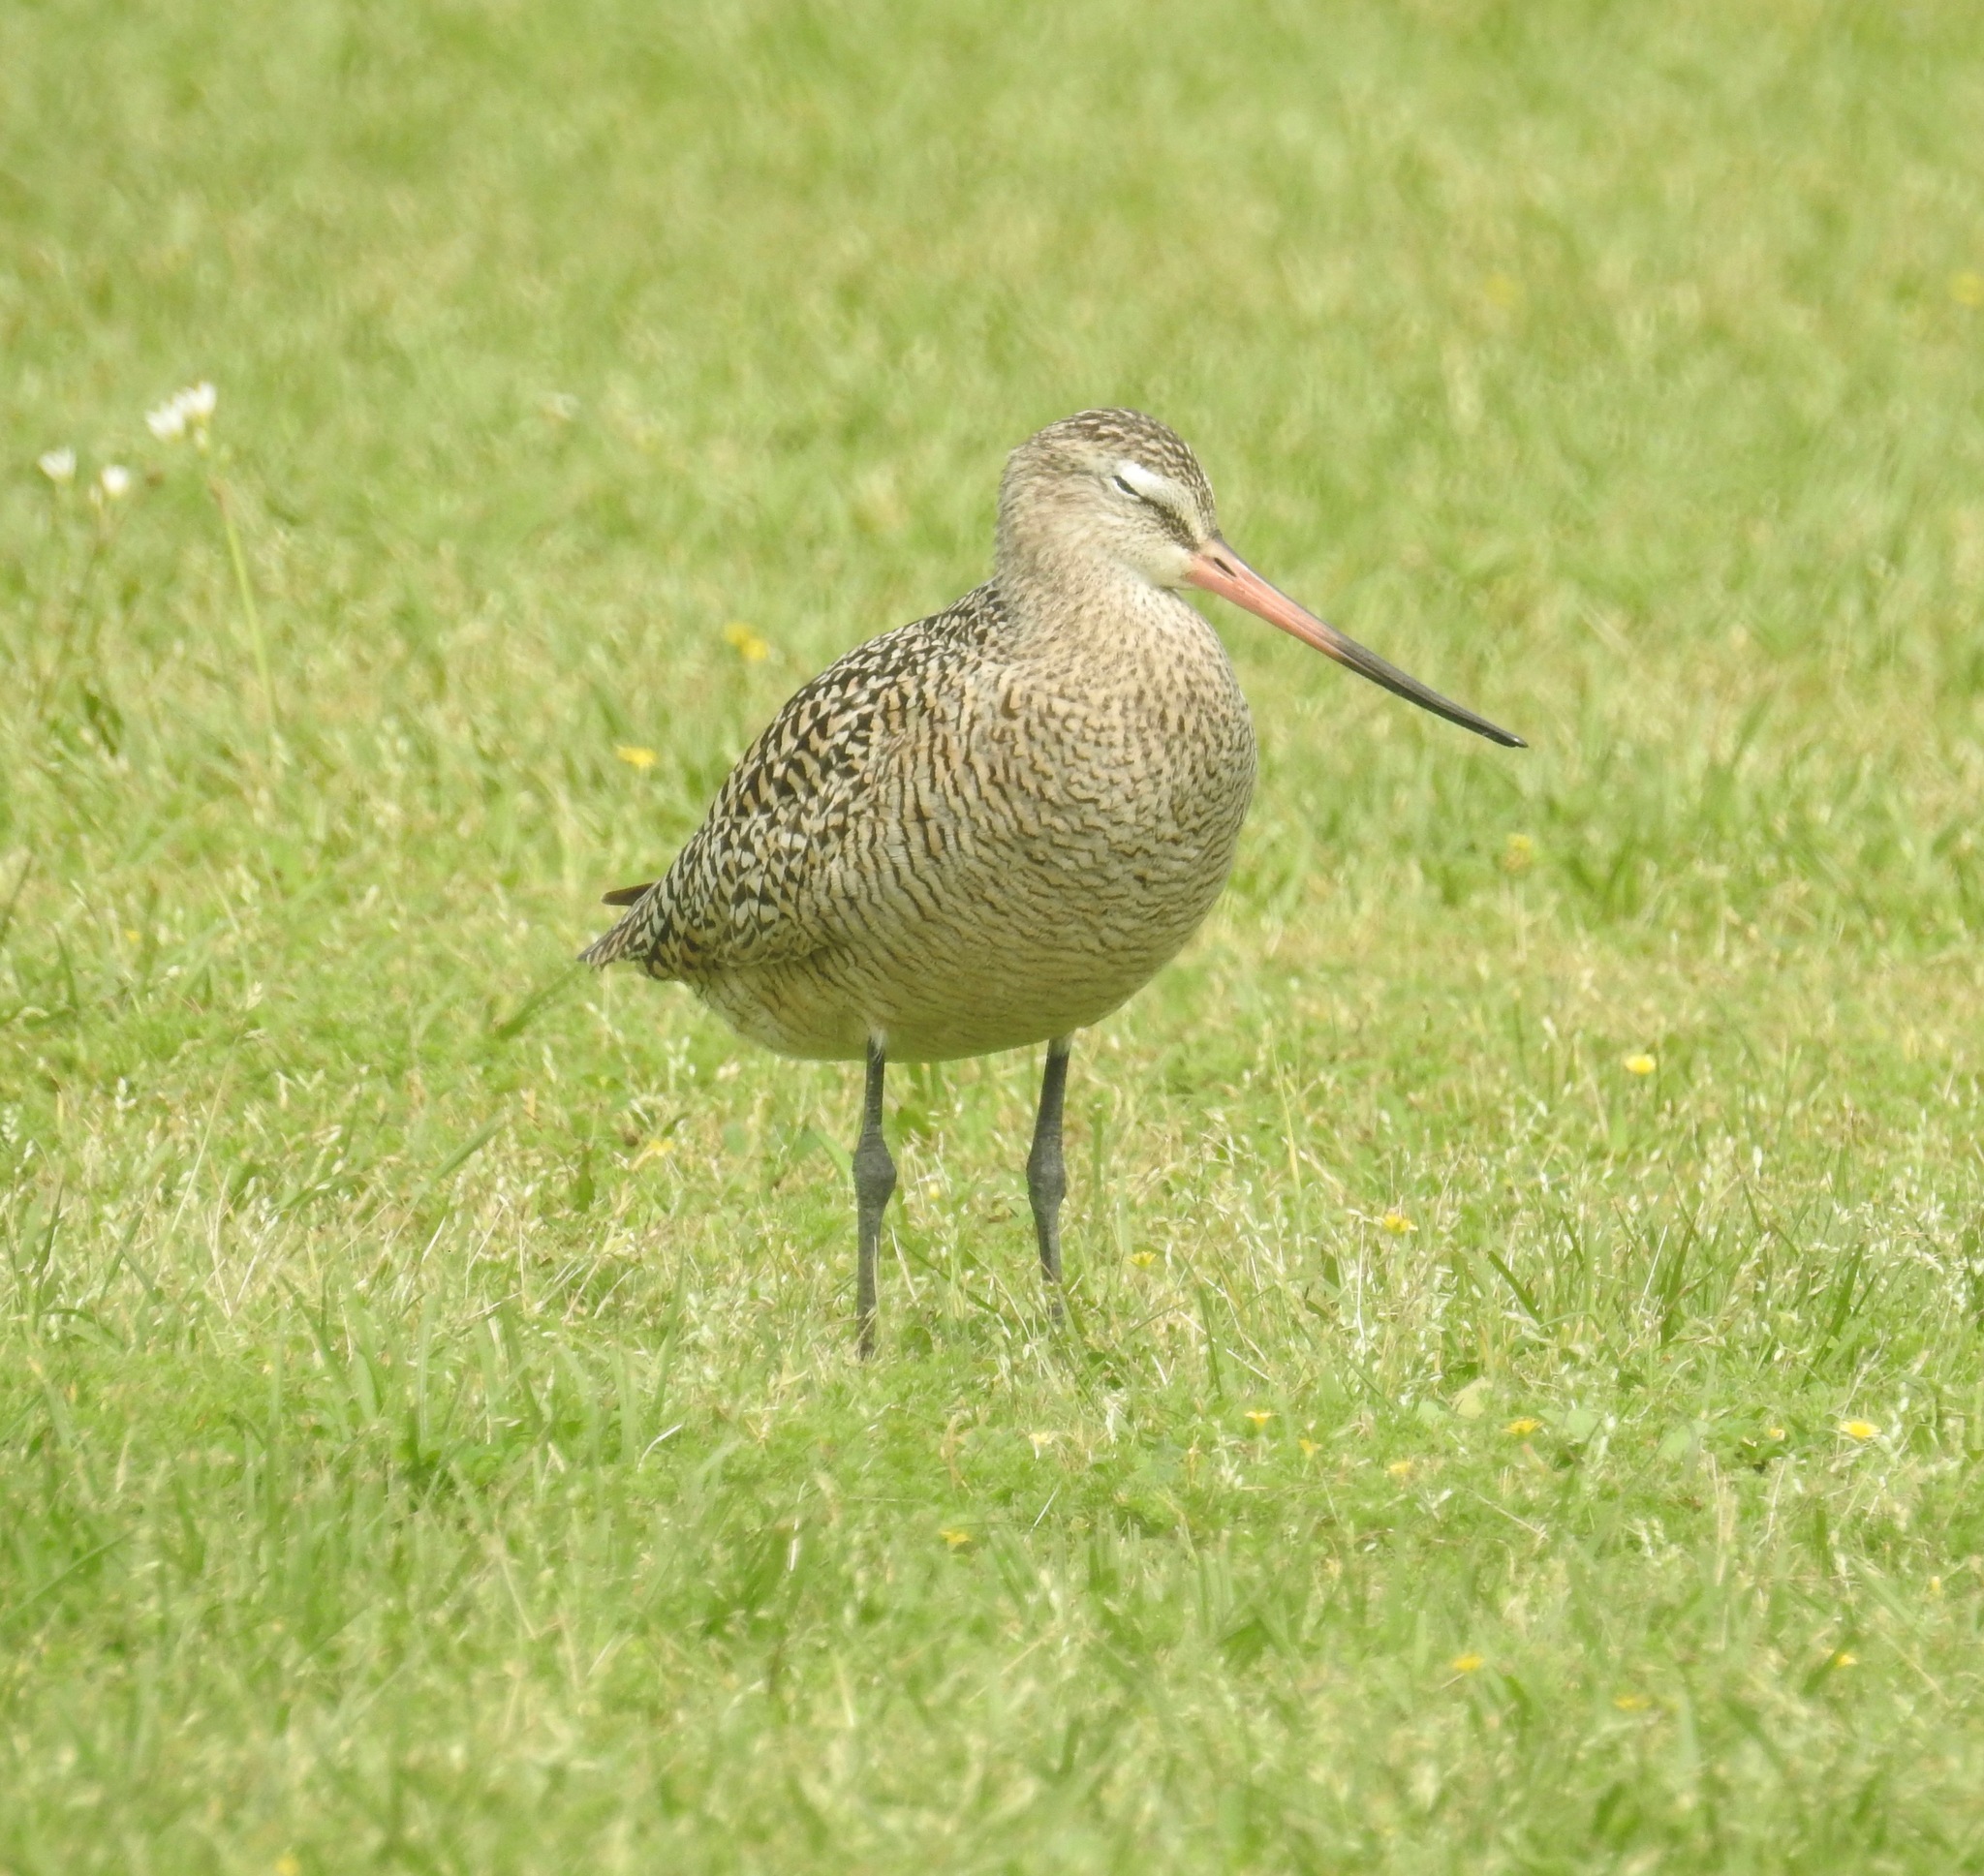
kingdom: Animalia
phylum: Chordata
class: Aves
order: Charadriiformes
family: Scolopacidae
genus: Limosa
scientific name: Limosa fedoa
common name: Marbled godwit
